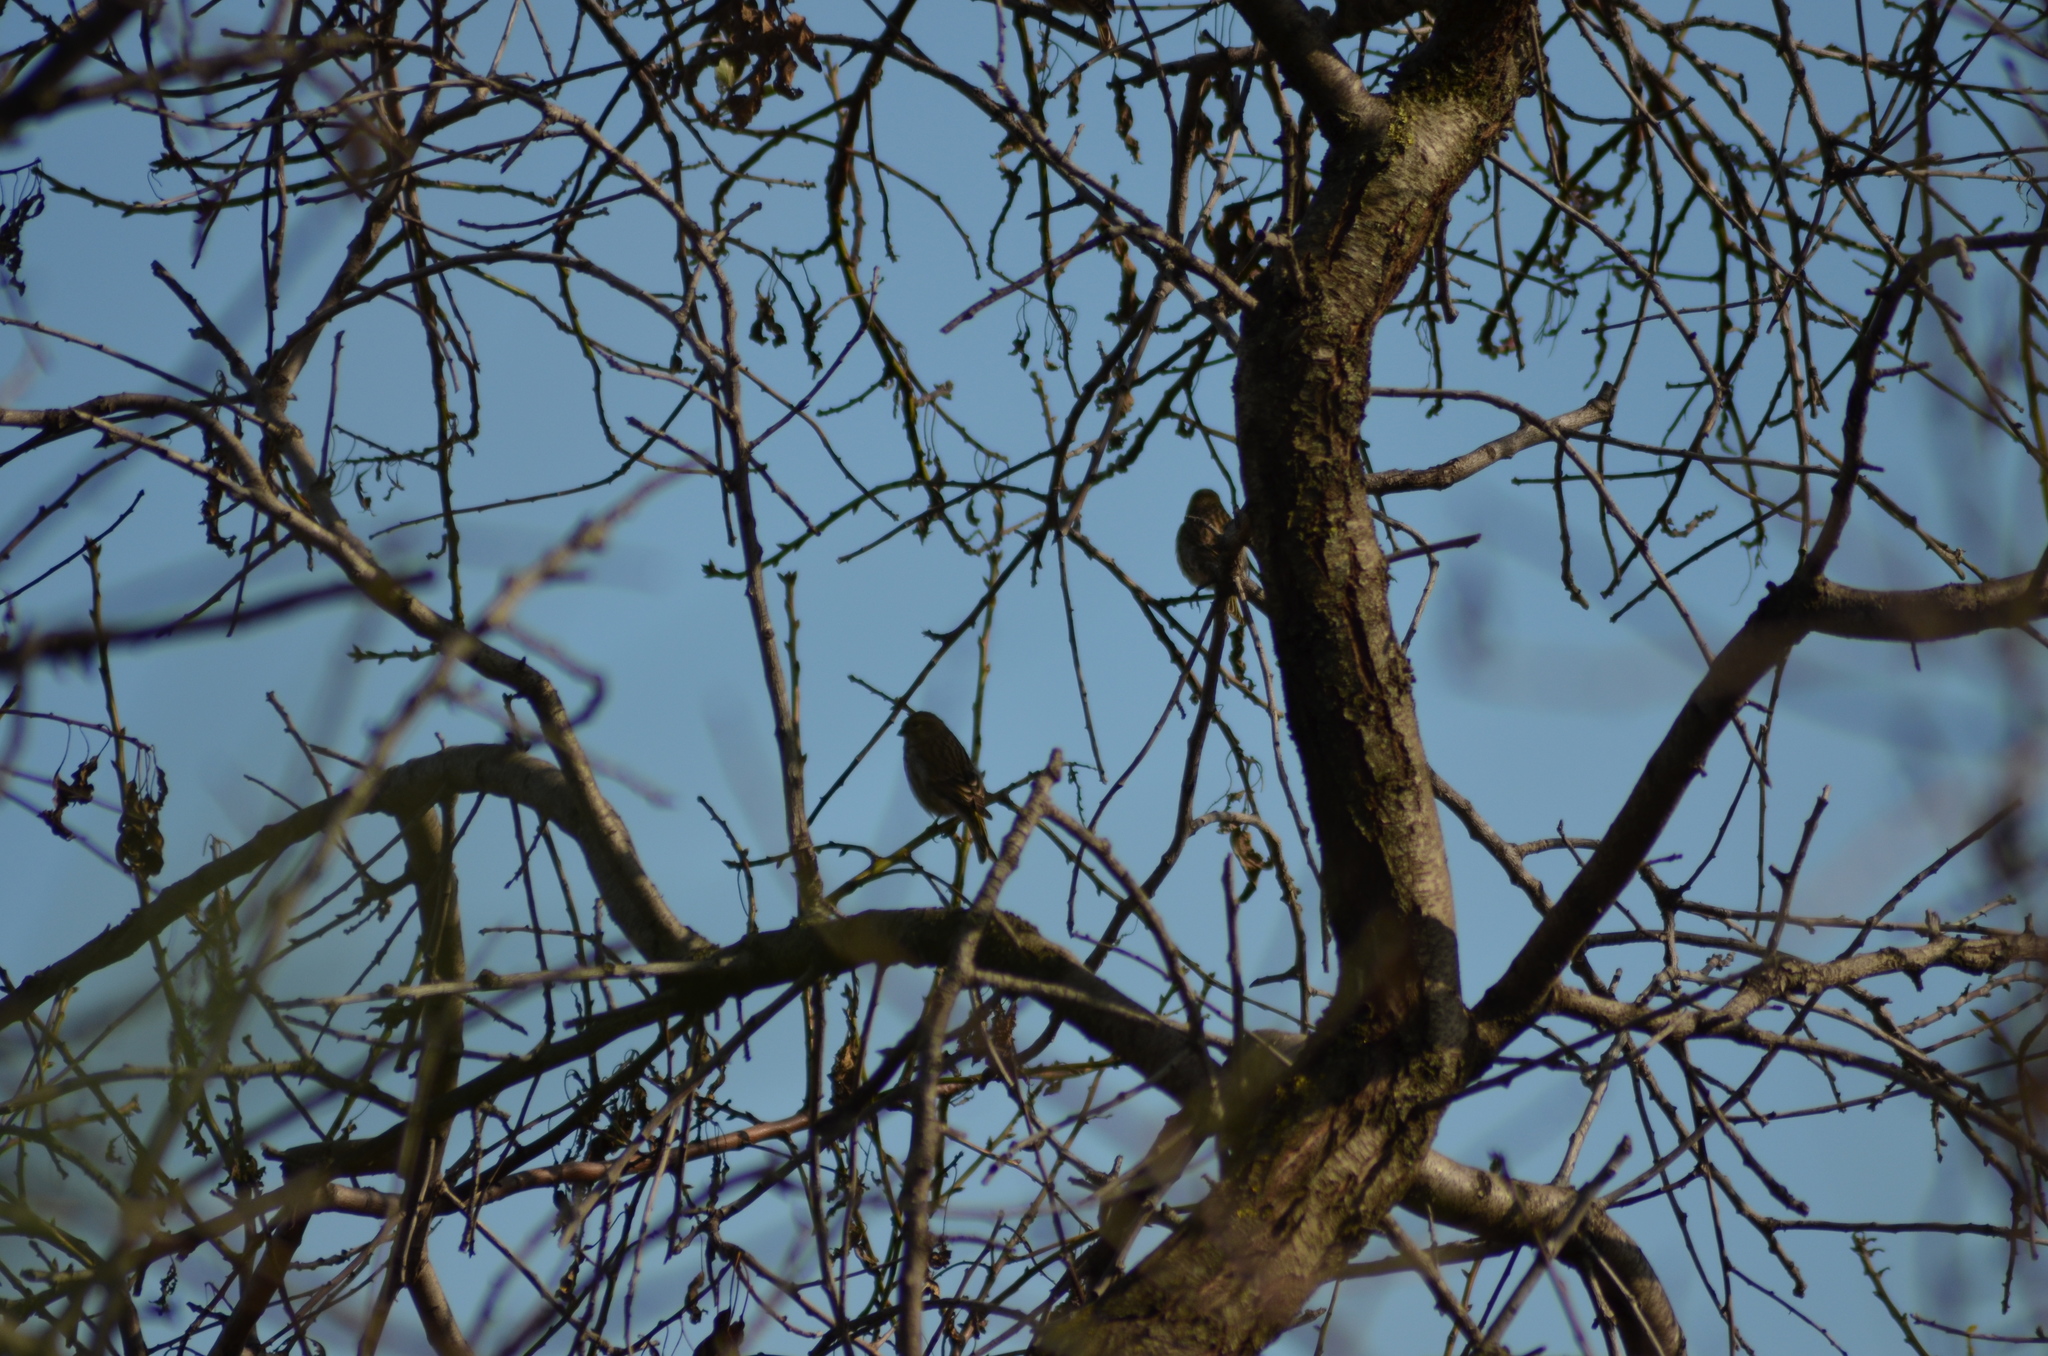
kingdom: Animalia
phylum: Chordata
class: Aves
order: Passeriformes
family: Fringillidae
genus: Serinus
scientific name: Serinus serinus
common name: European serin
